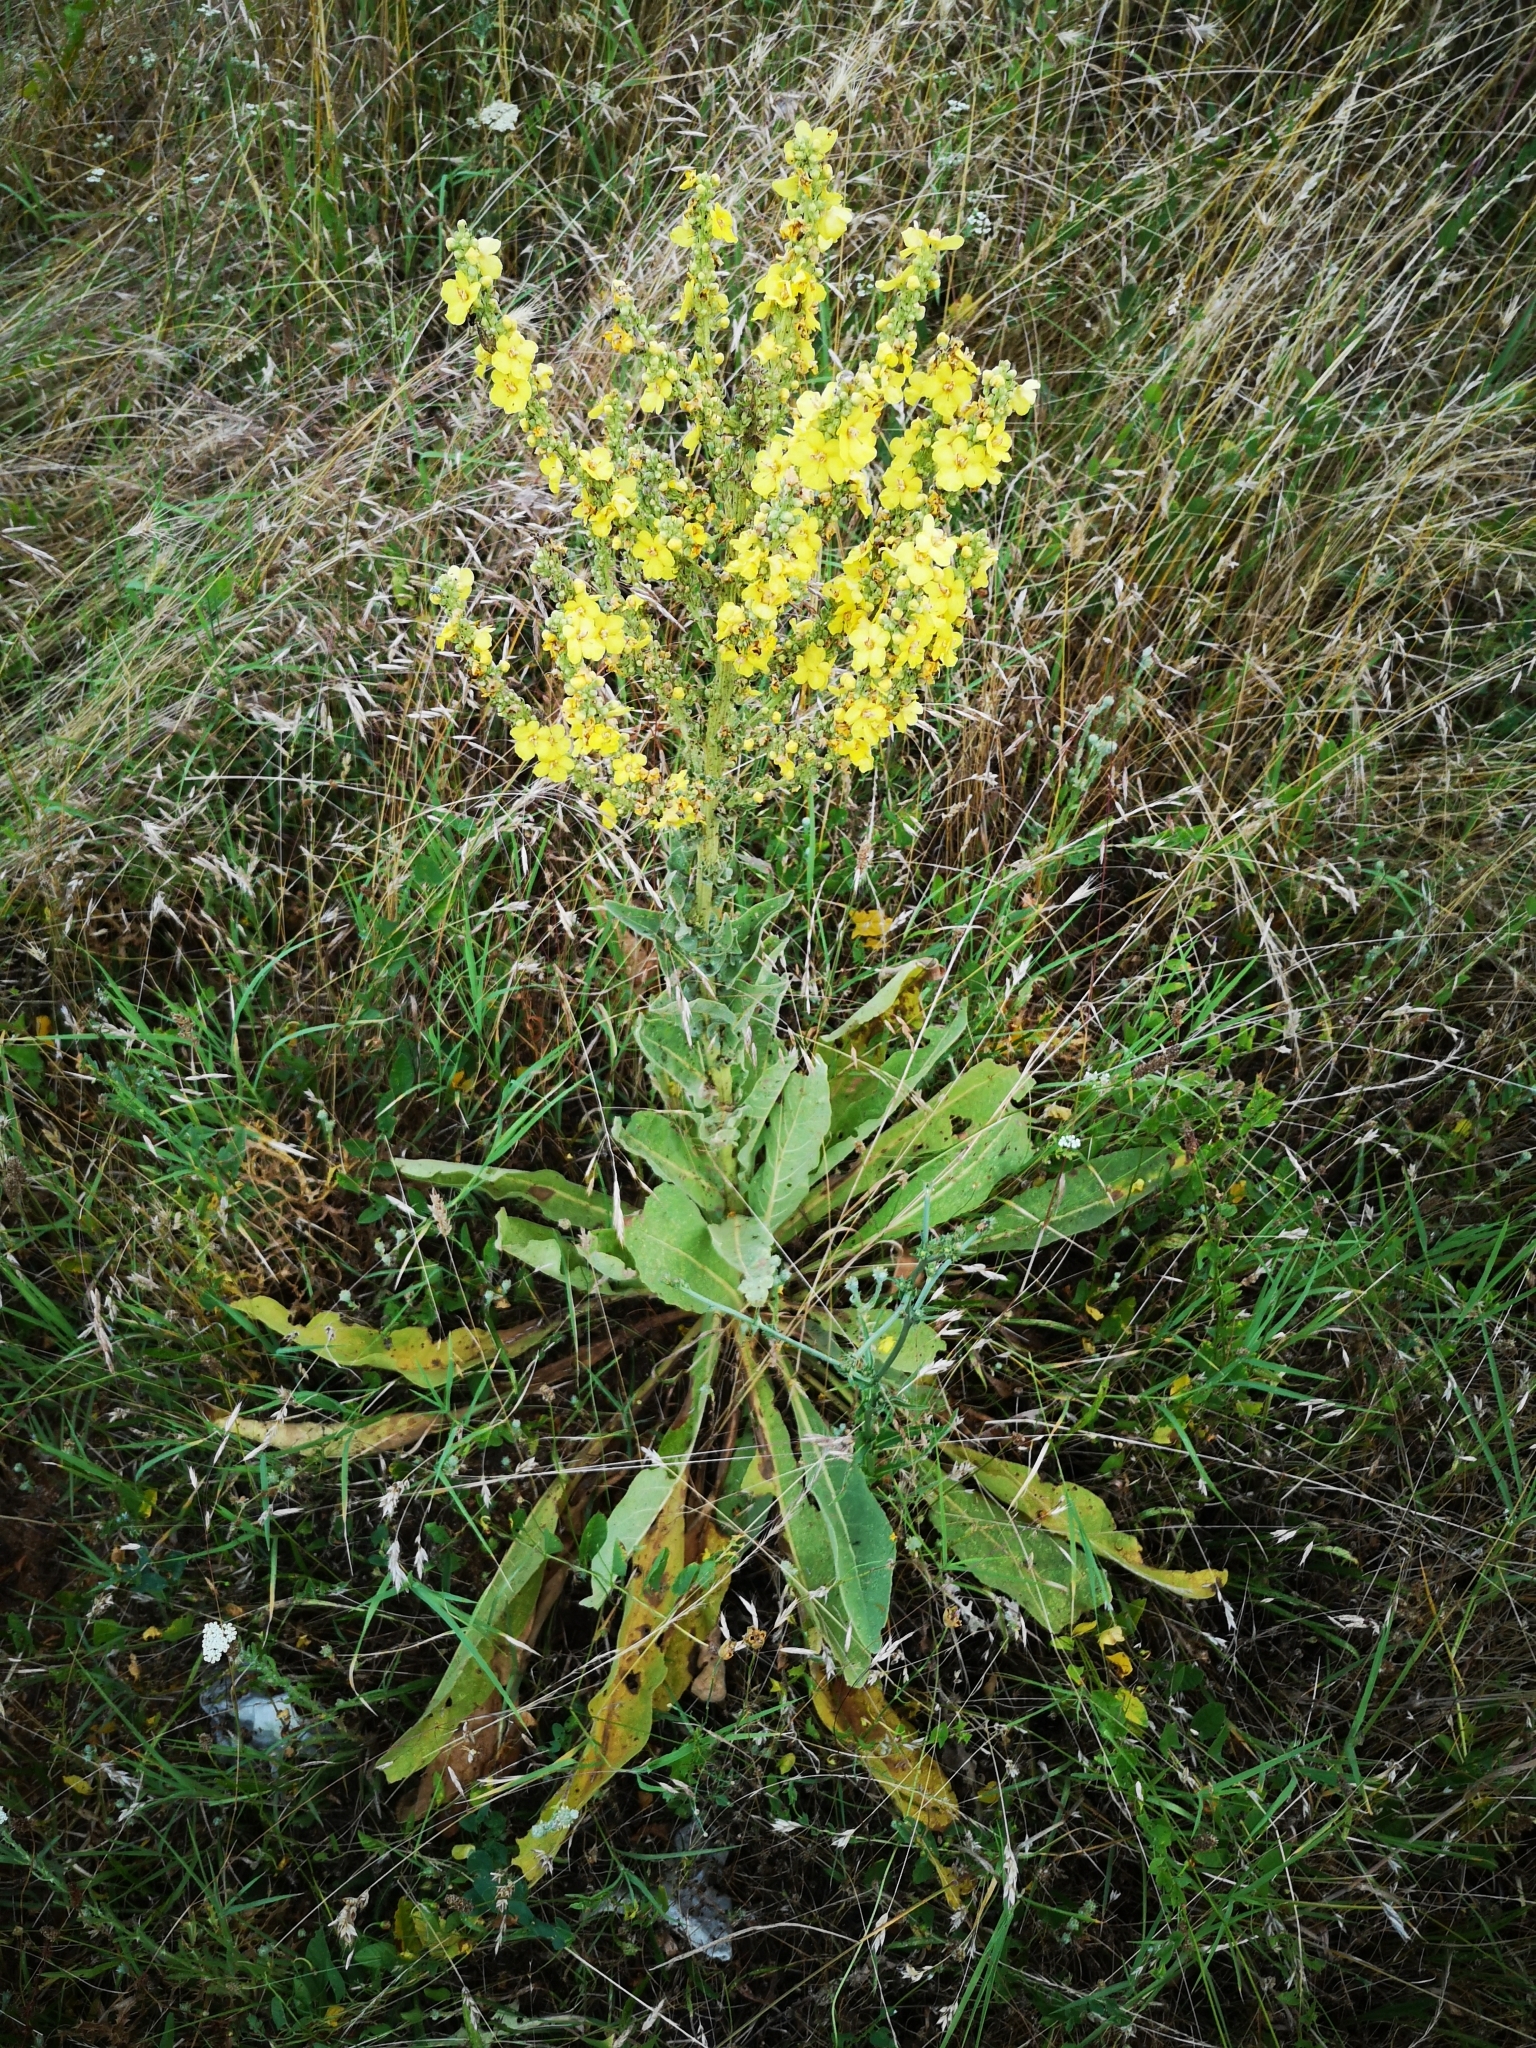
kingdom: Plantae
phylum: Tracheophyta
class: Magnoliopsida
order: Lamiales
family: Scrophulariaceae
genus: Verbascum
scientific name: Verbascum speciosum
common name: Hungarian mullein
